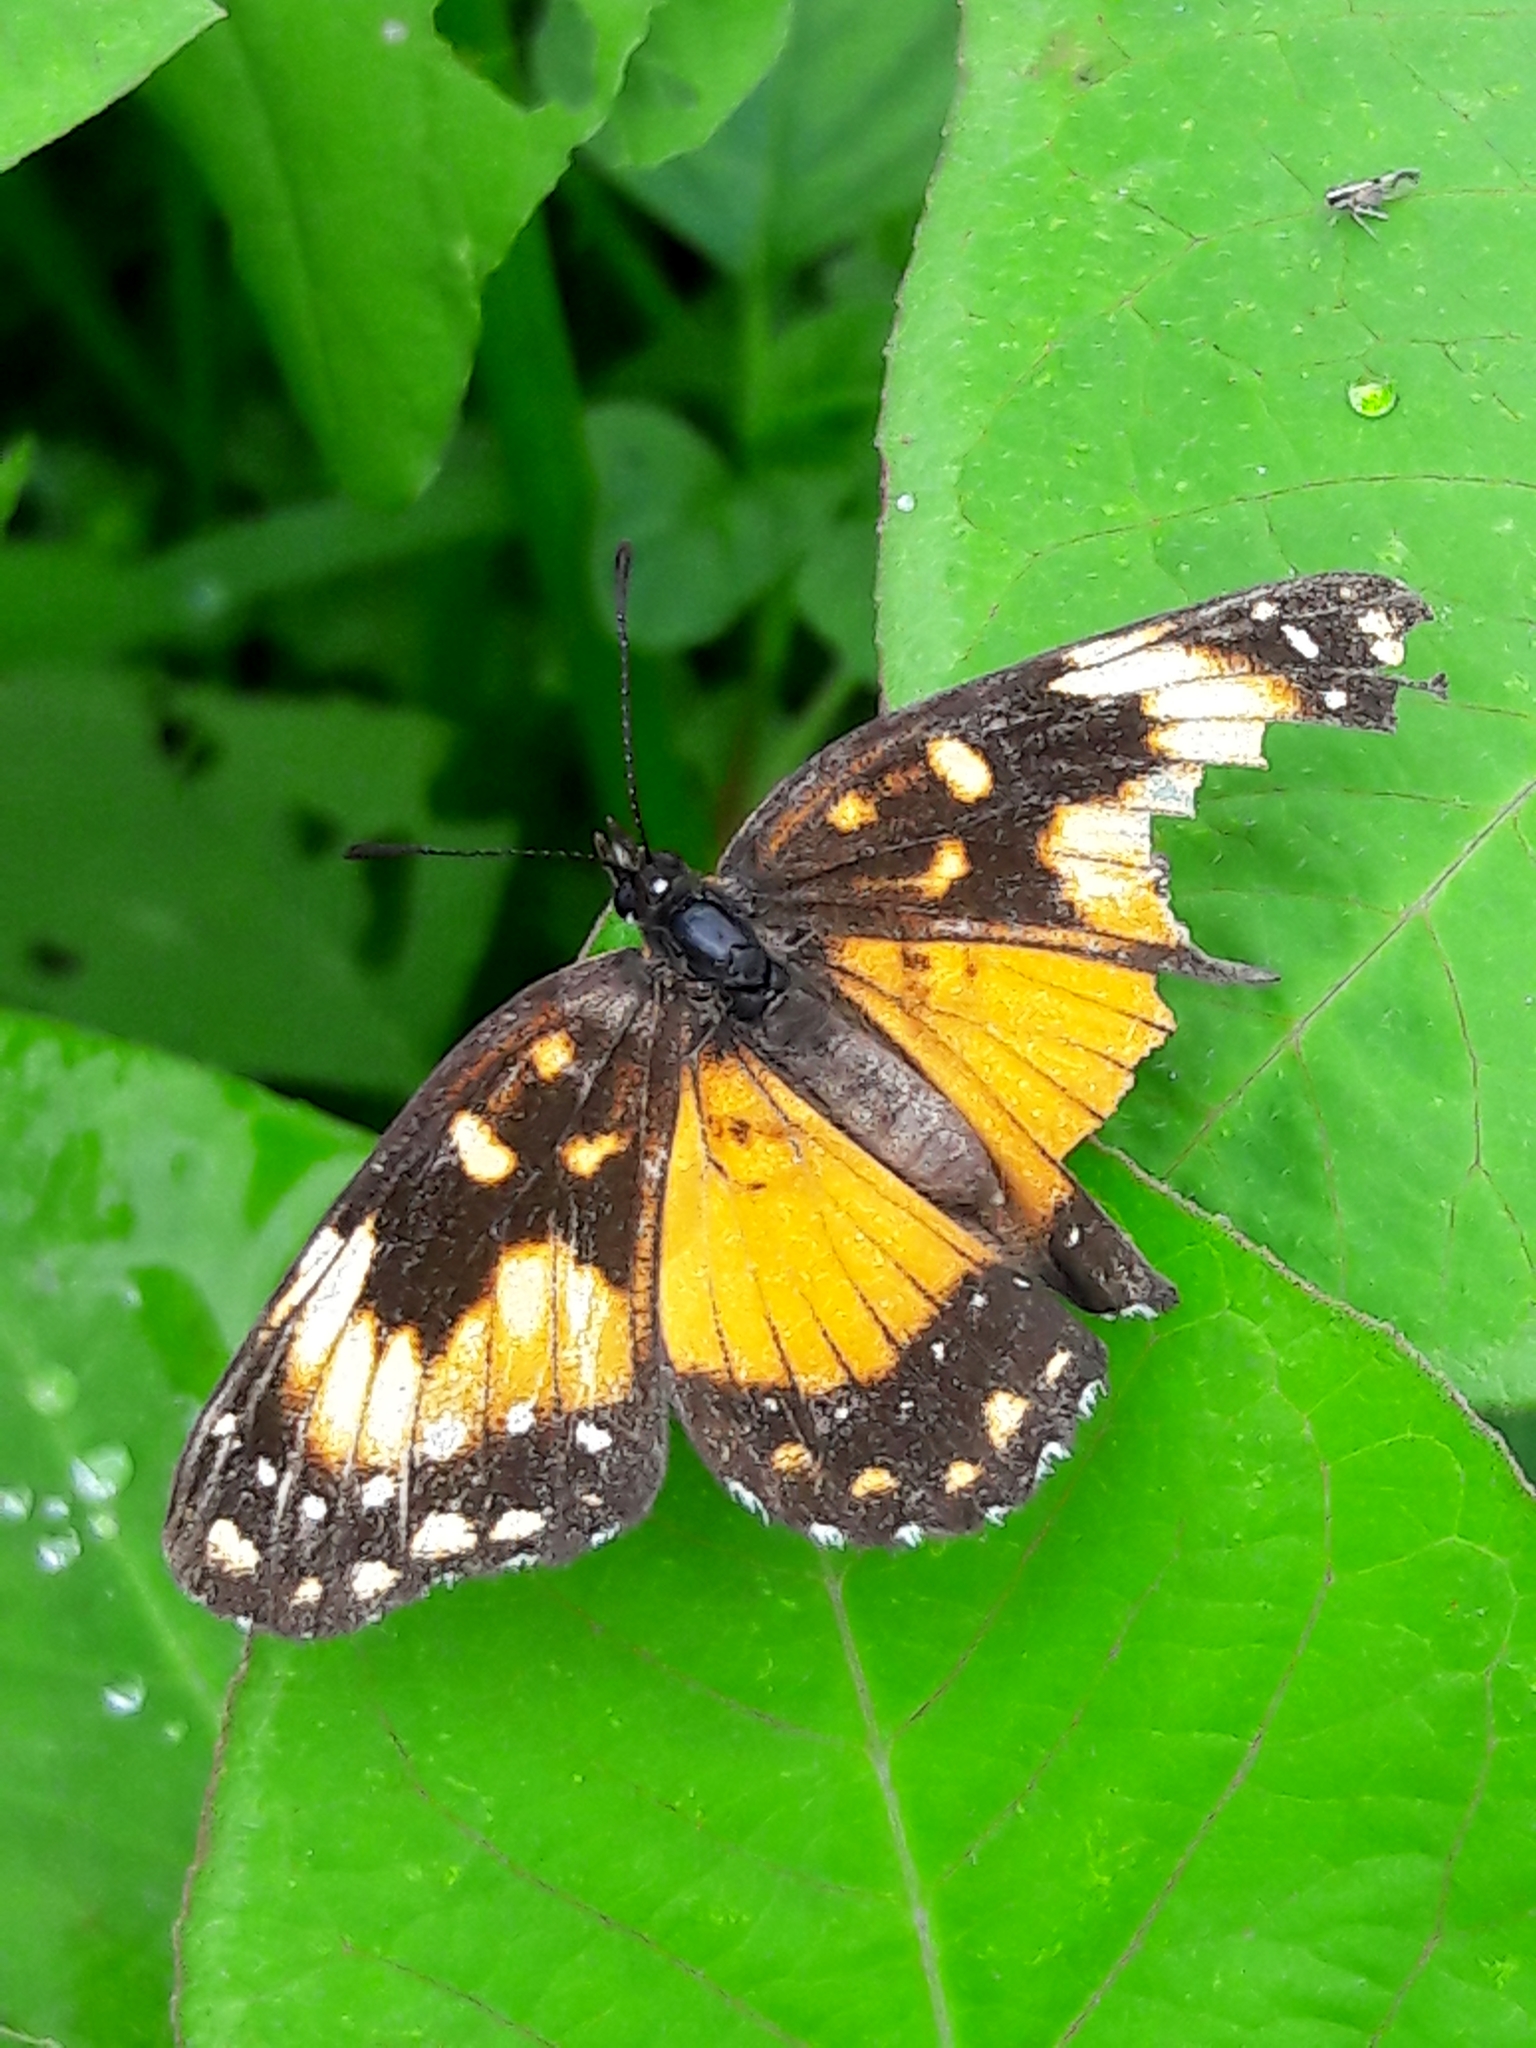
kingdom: Animalia
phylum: Arthropoda
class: Insecta
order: Lepidoptera
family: Nymphalidae
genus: Chlosyne
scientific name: Chlosyne lacinia
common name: Bordered patch
